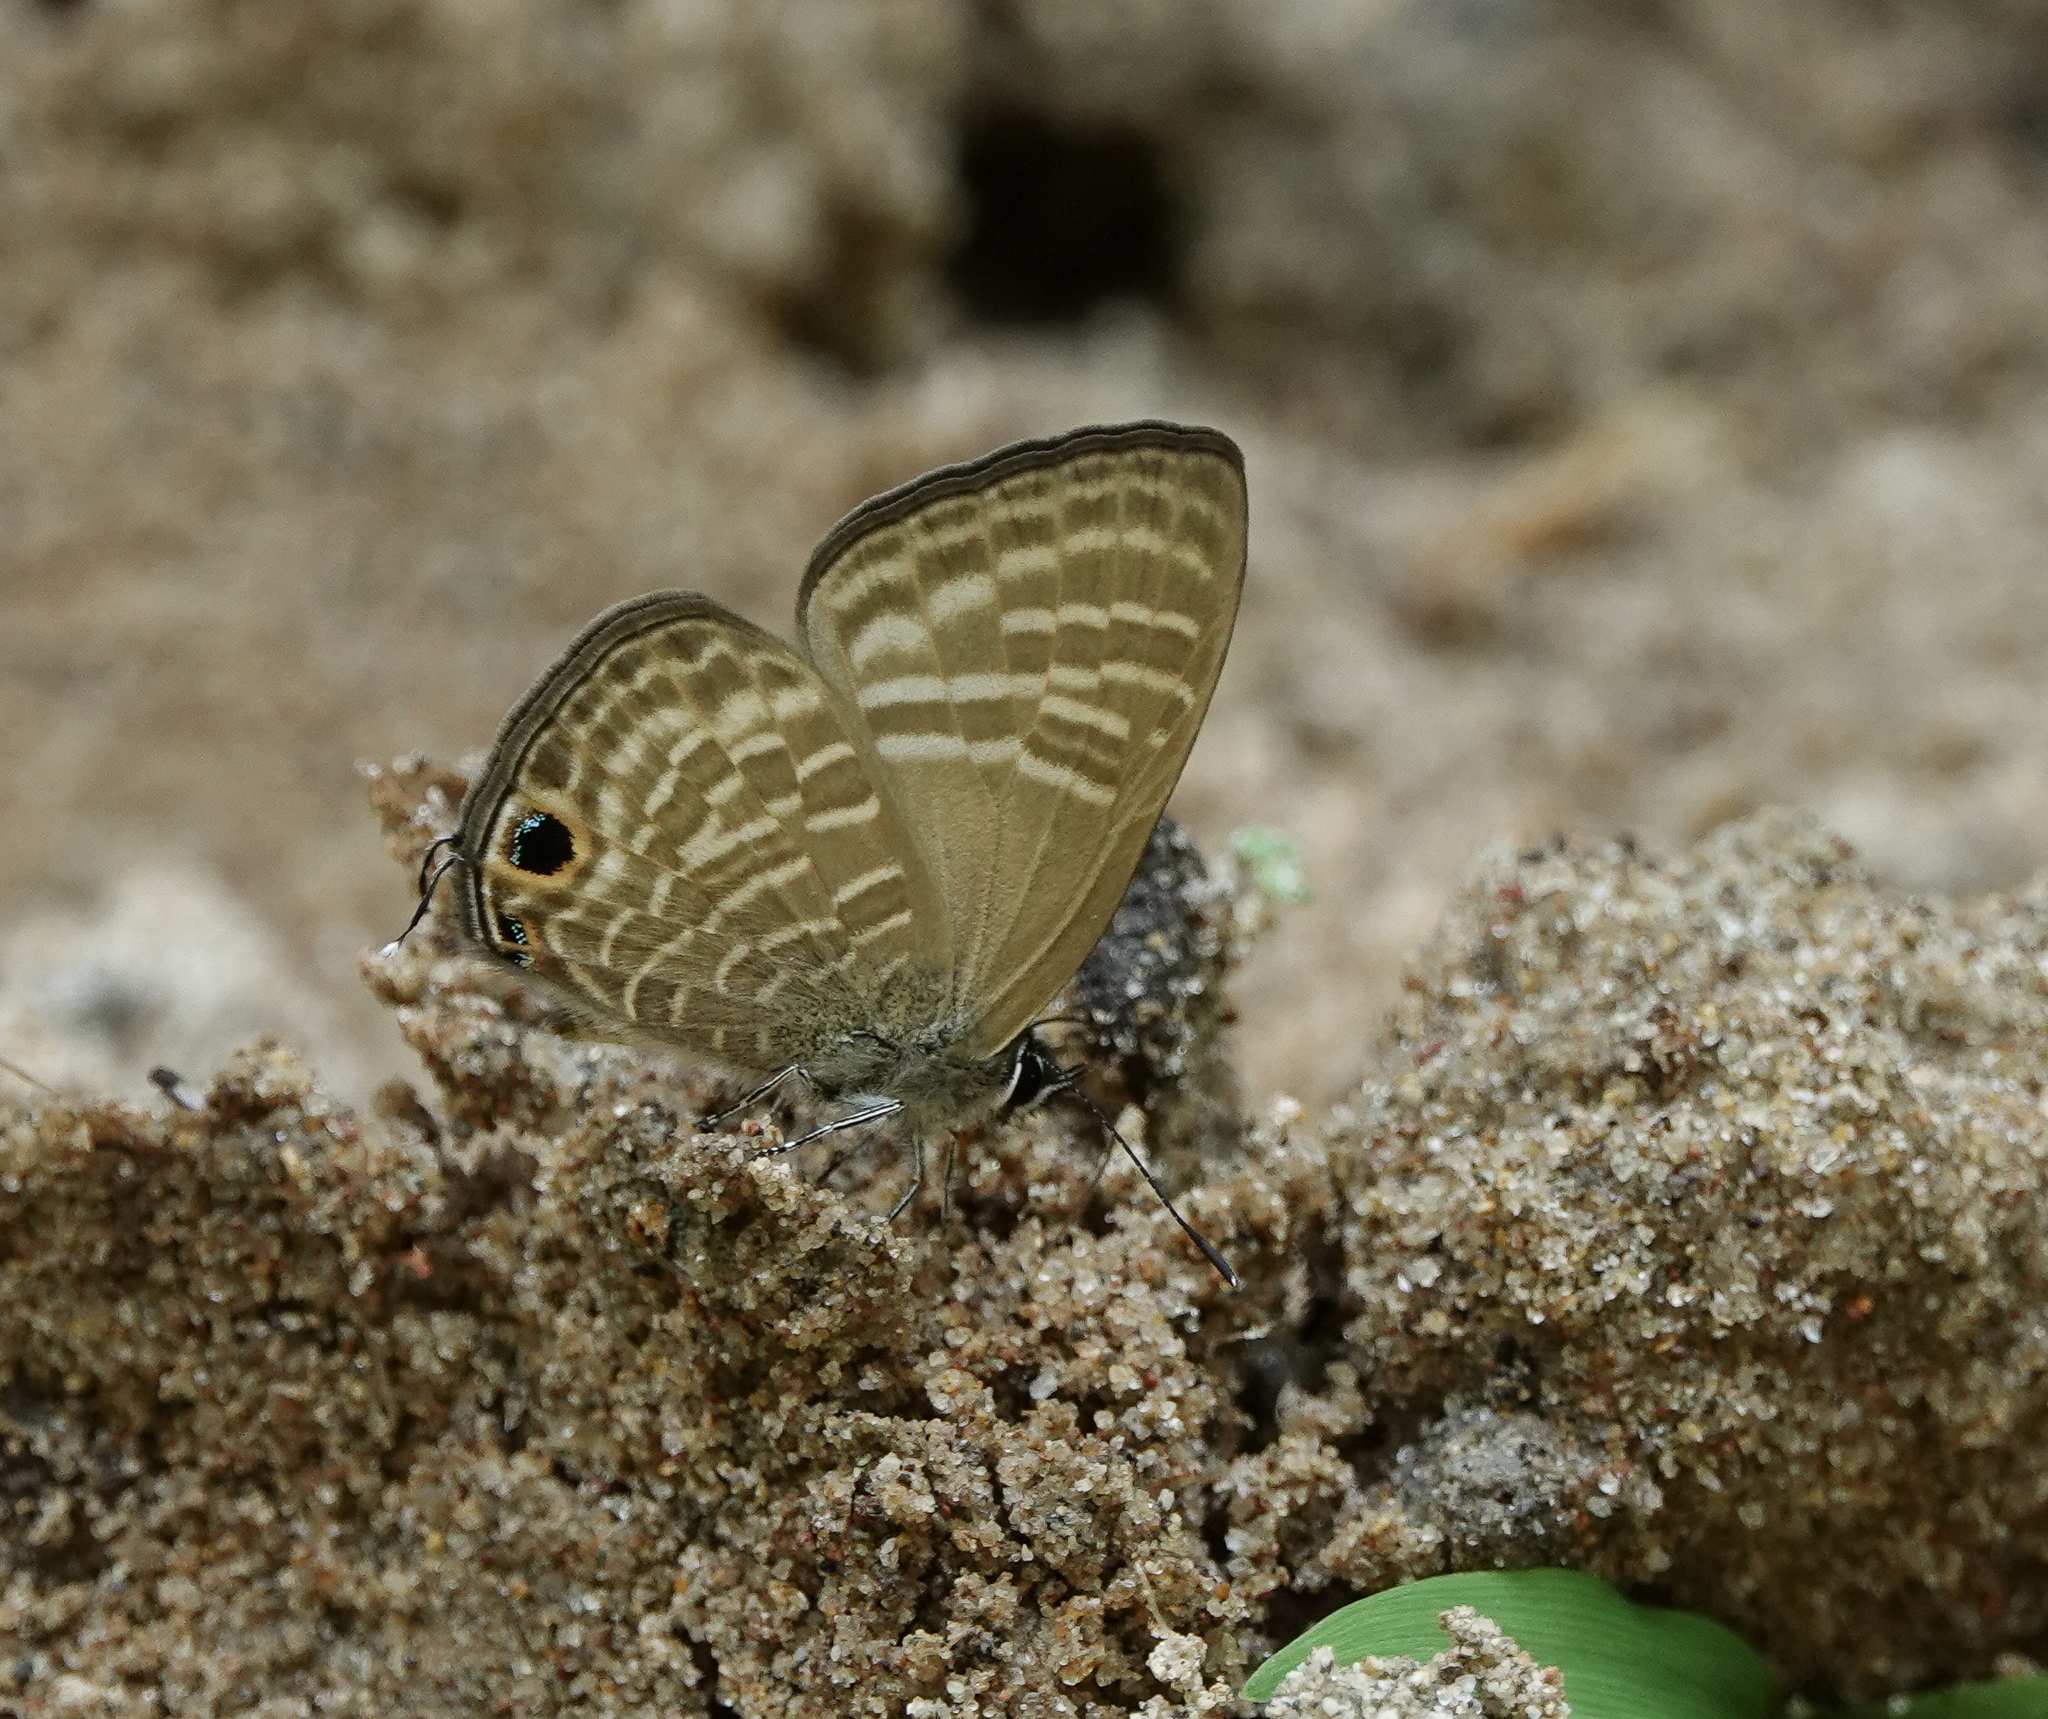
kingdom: Animalia
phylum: Arthropoda
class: Insecta
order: Lepidoptera
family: Lycaenidae
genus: Nacaduba
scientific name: Nacaduba pactolus
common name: Large fourline blue
